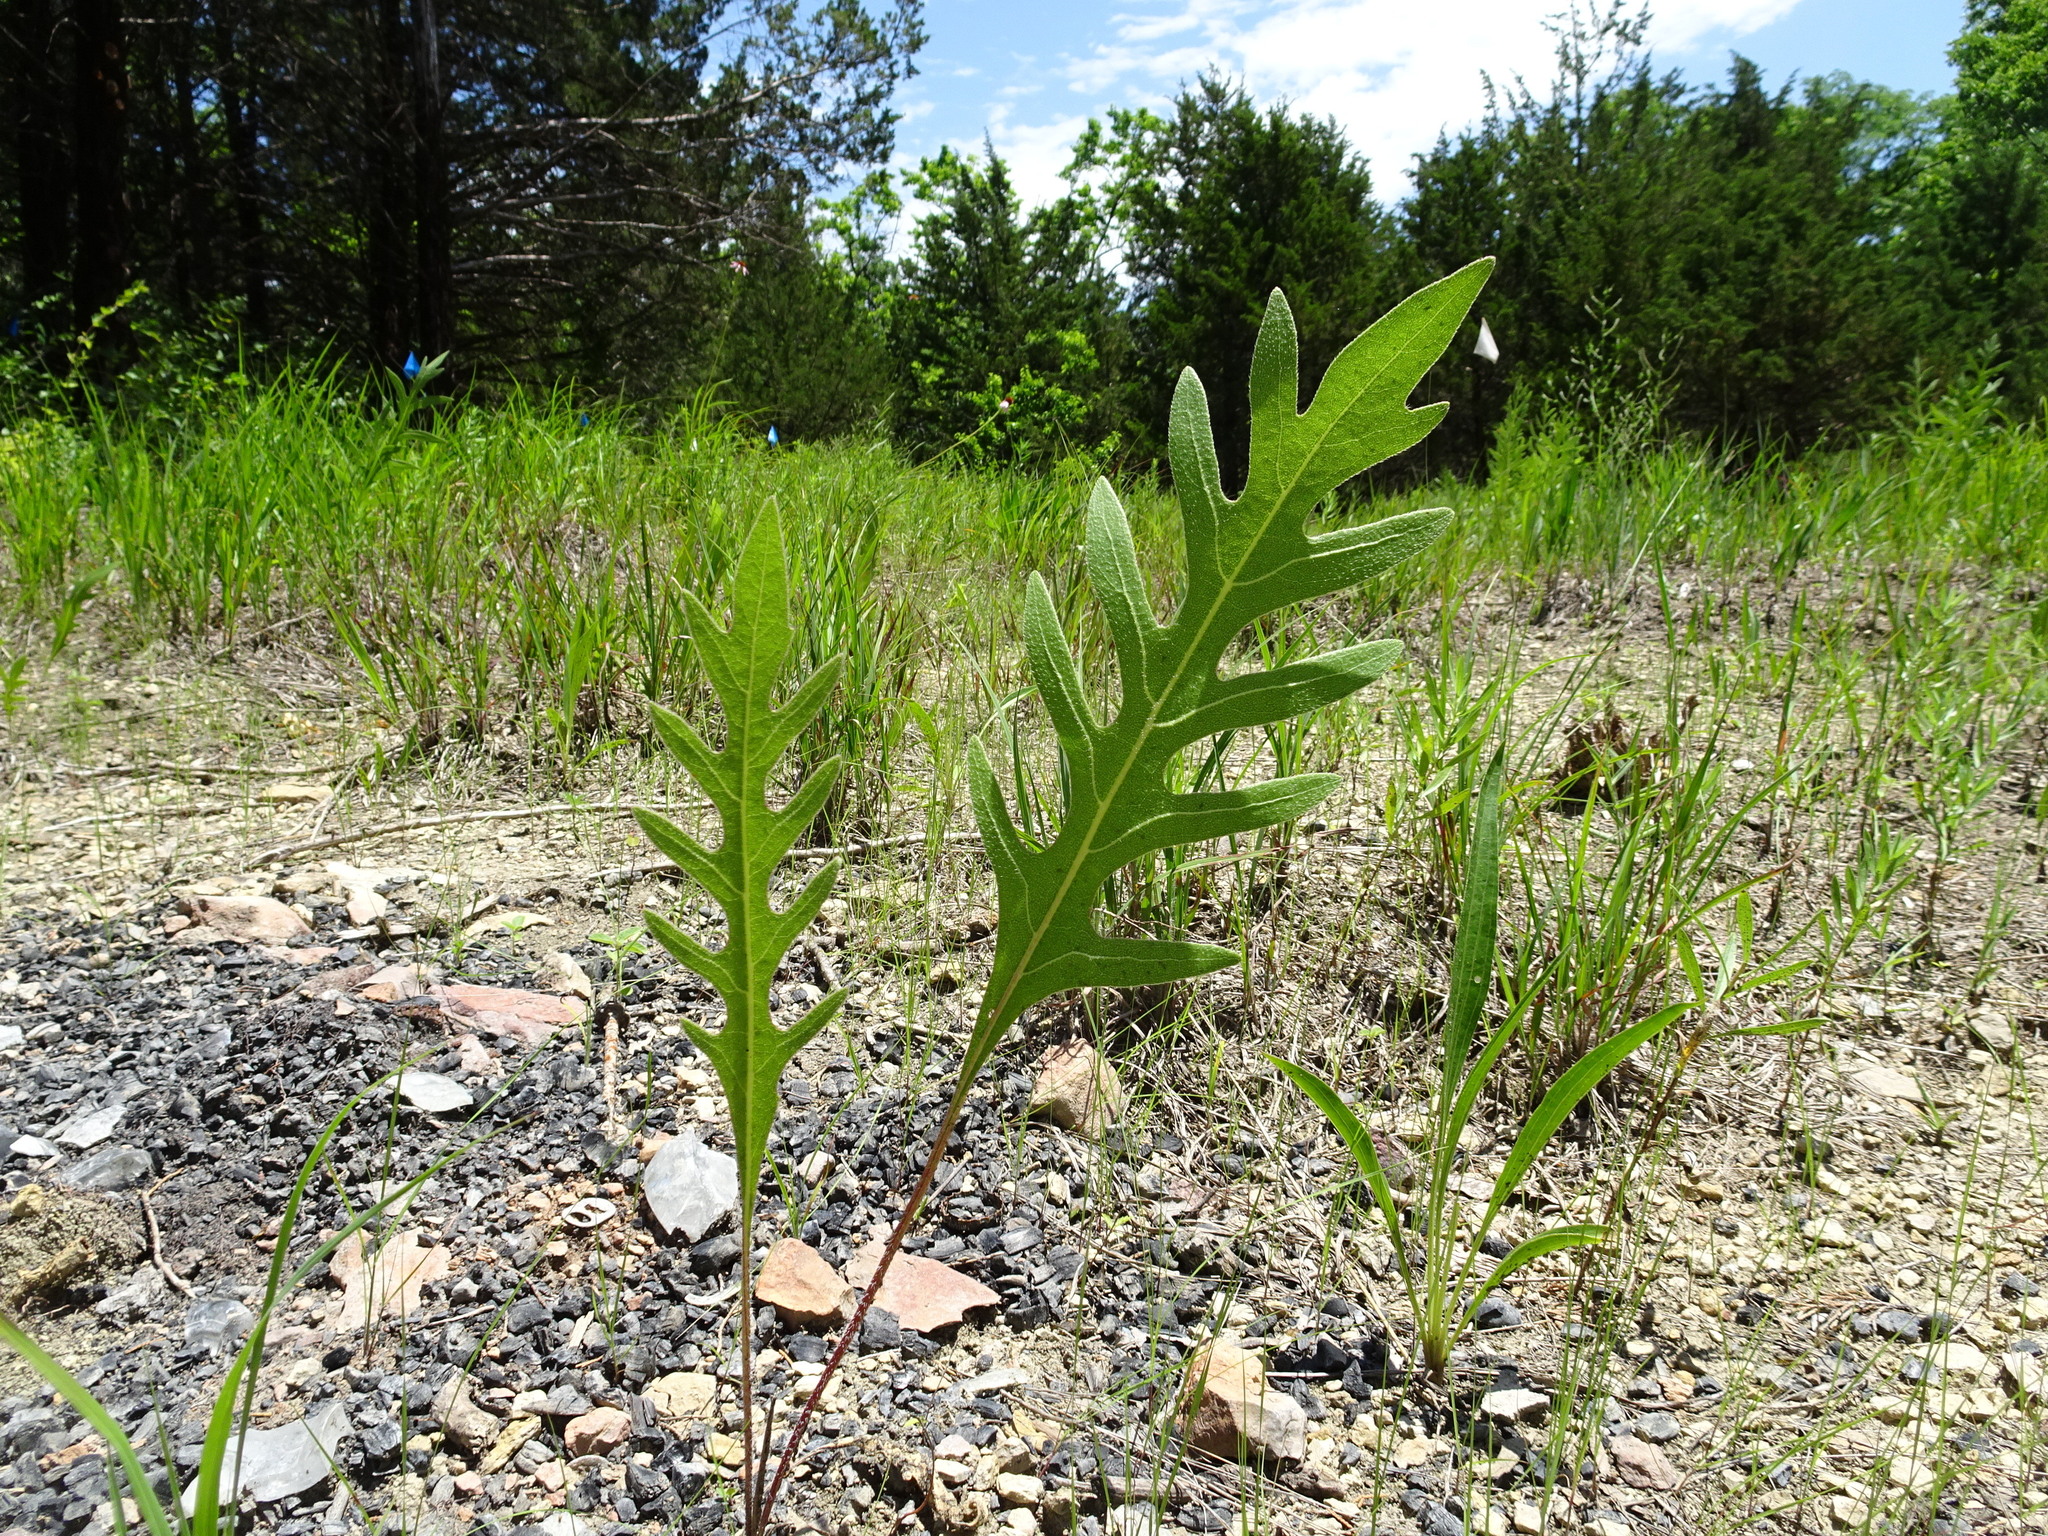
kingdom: Plantae
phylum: Tracheophyta
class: Magnoliopsida
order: Asterales
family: Asteraceae
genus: Silphium
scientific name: Silphium laciniatum
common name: Polarplant
